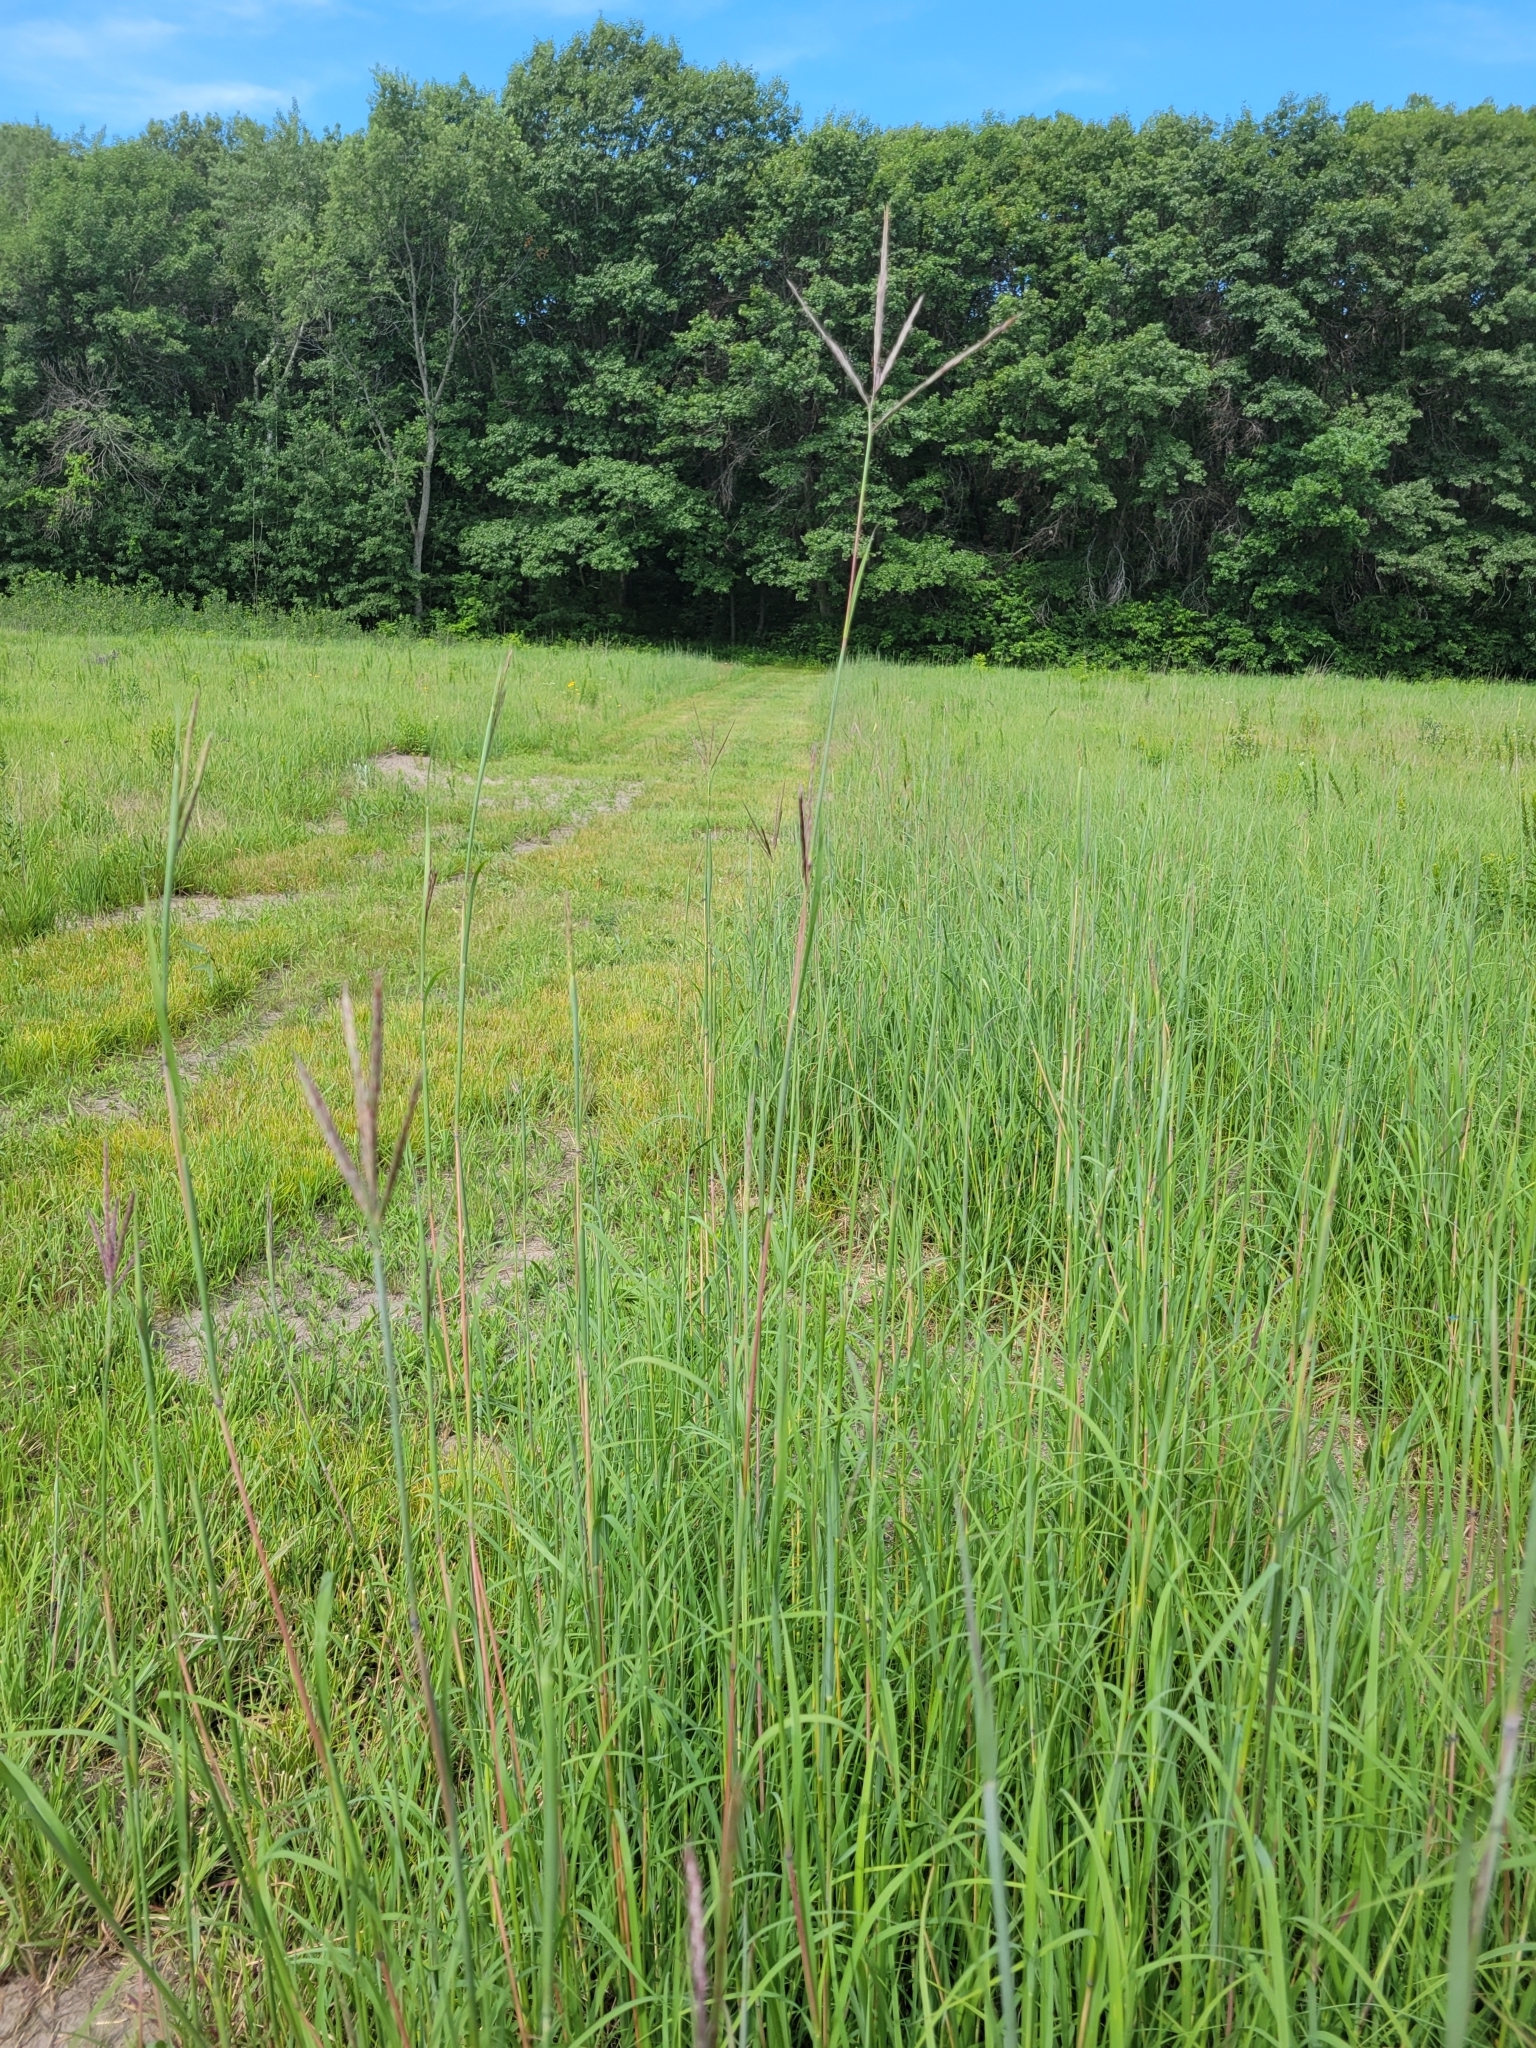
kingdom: Plantae
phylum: Tracheophyta
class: Liliopsida
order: Poales
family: Poaceae
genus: Andropogon
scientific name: Andropogon gerardi
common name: Big bluestem
